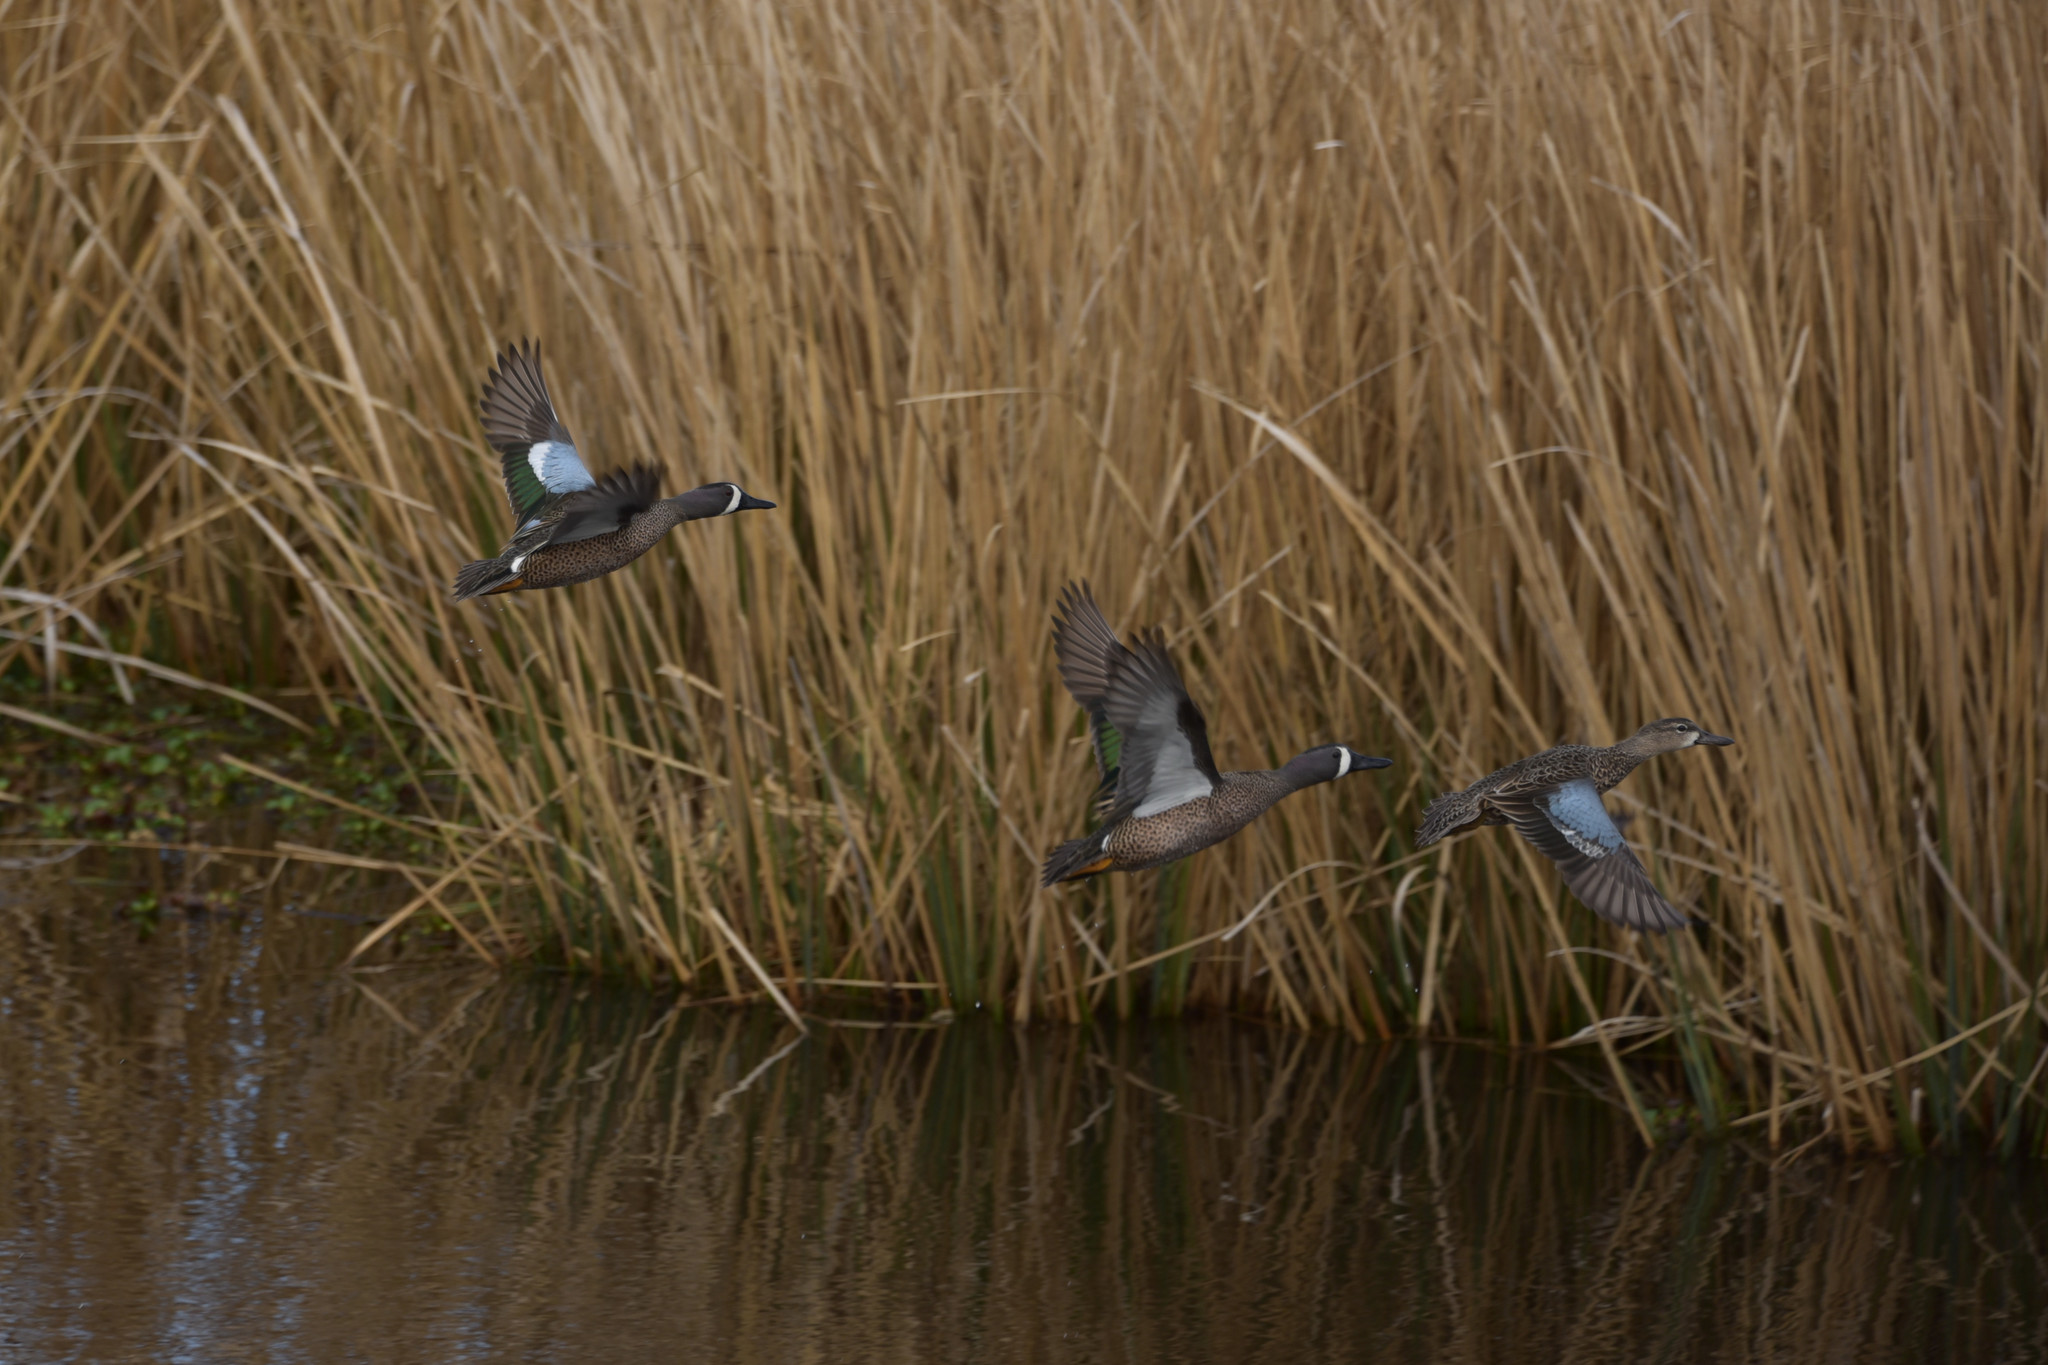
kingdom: Animalia
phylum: Chordata
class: Aves
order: Anseriformes
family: Anatidae
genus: Spatula
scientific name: Spatula discors
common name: Blue-winged teal
